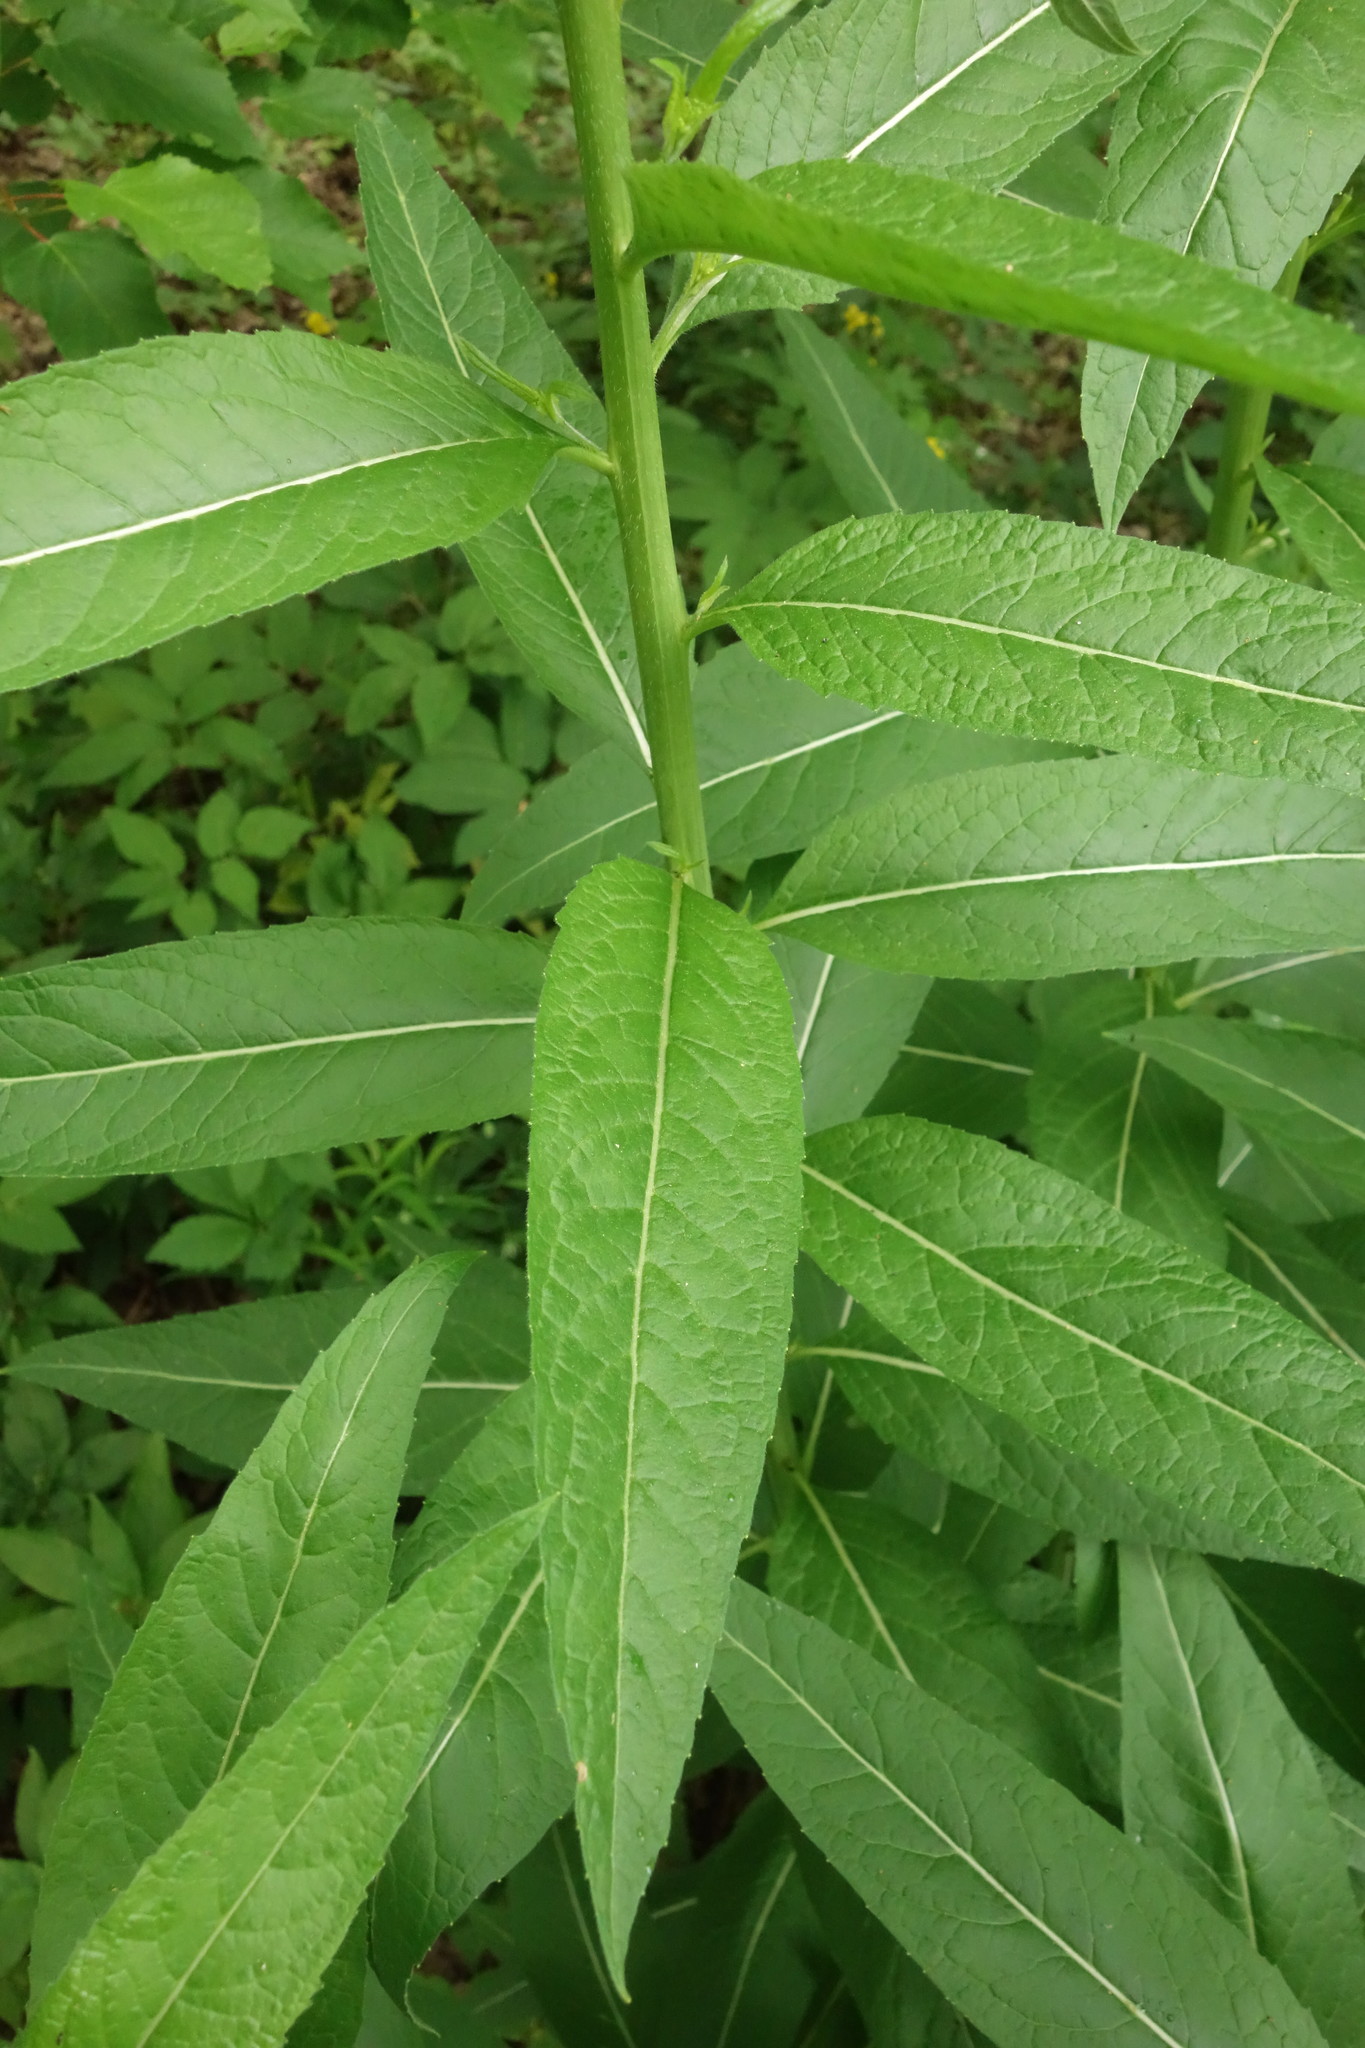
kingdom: Plantae
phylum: Tracheophyta
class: Magnoliopsida
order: Brassicales
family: Brassicaceae
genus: Sisymbrium
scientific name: Sisymbrium strictissimum
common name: Perennial rocket
